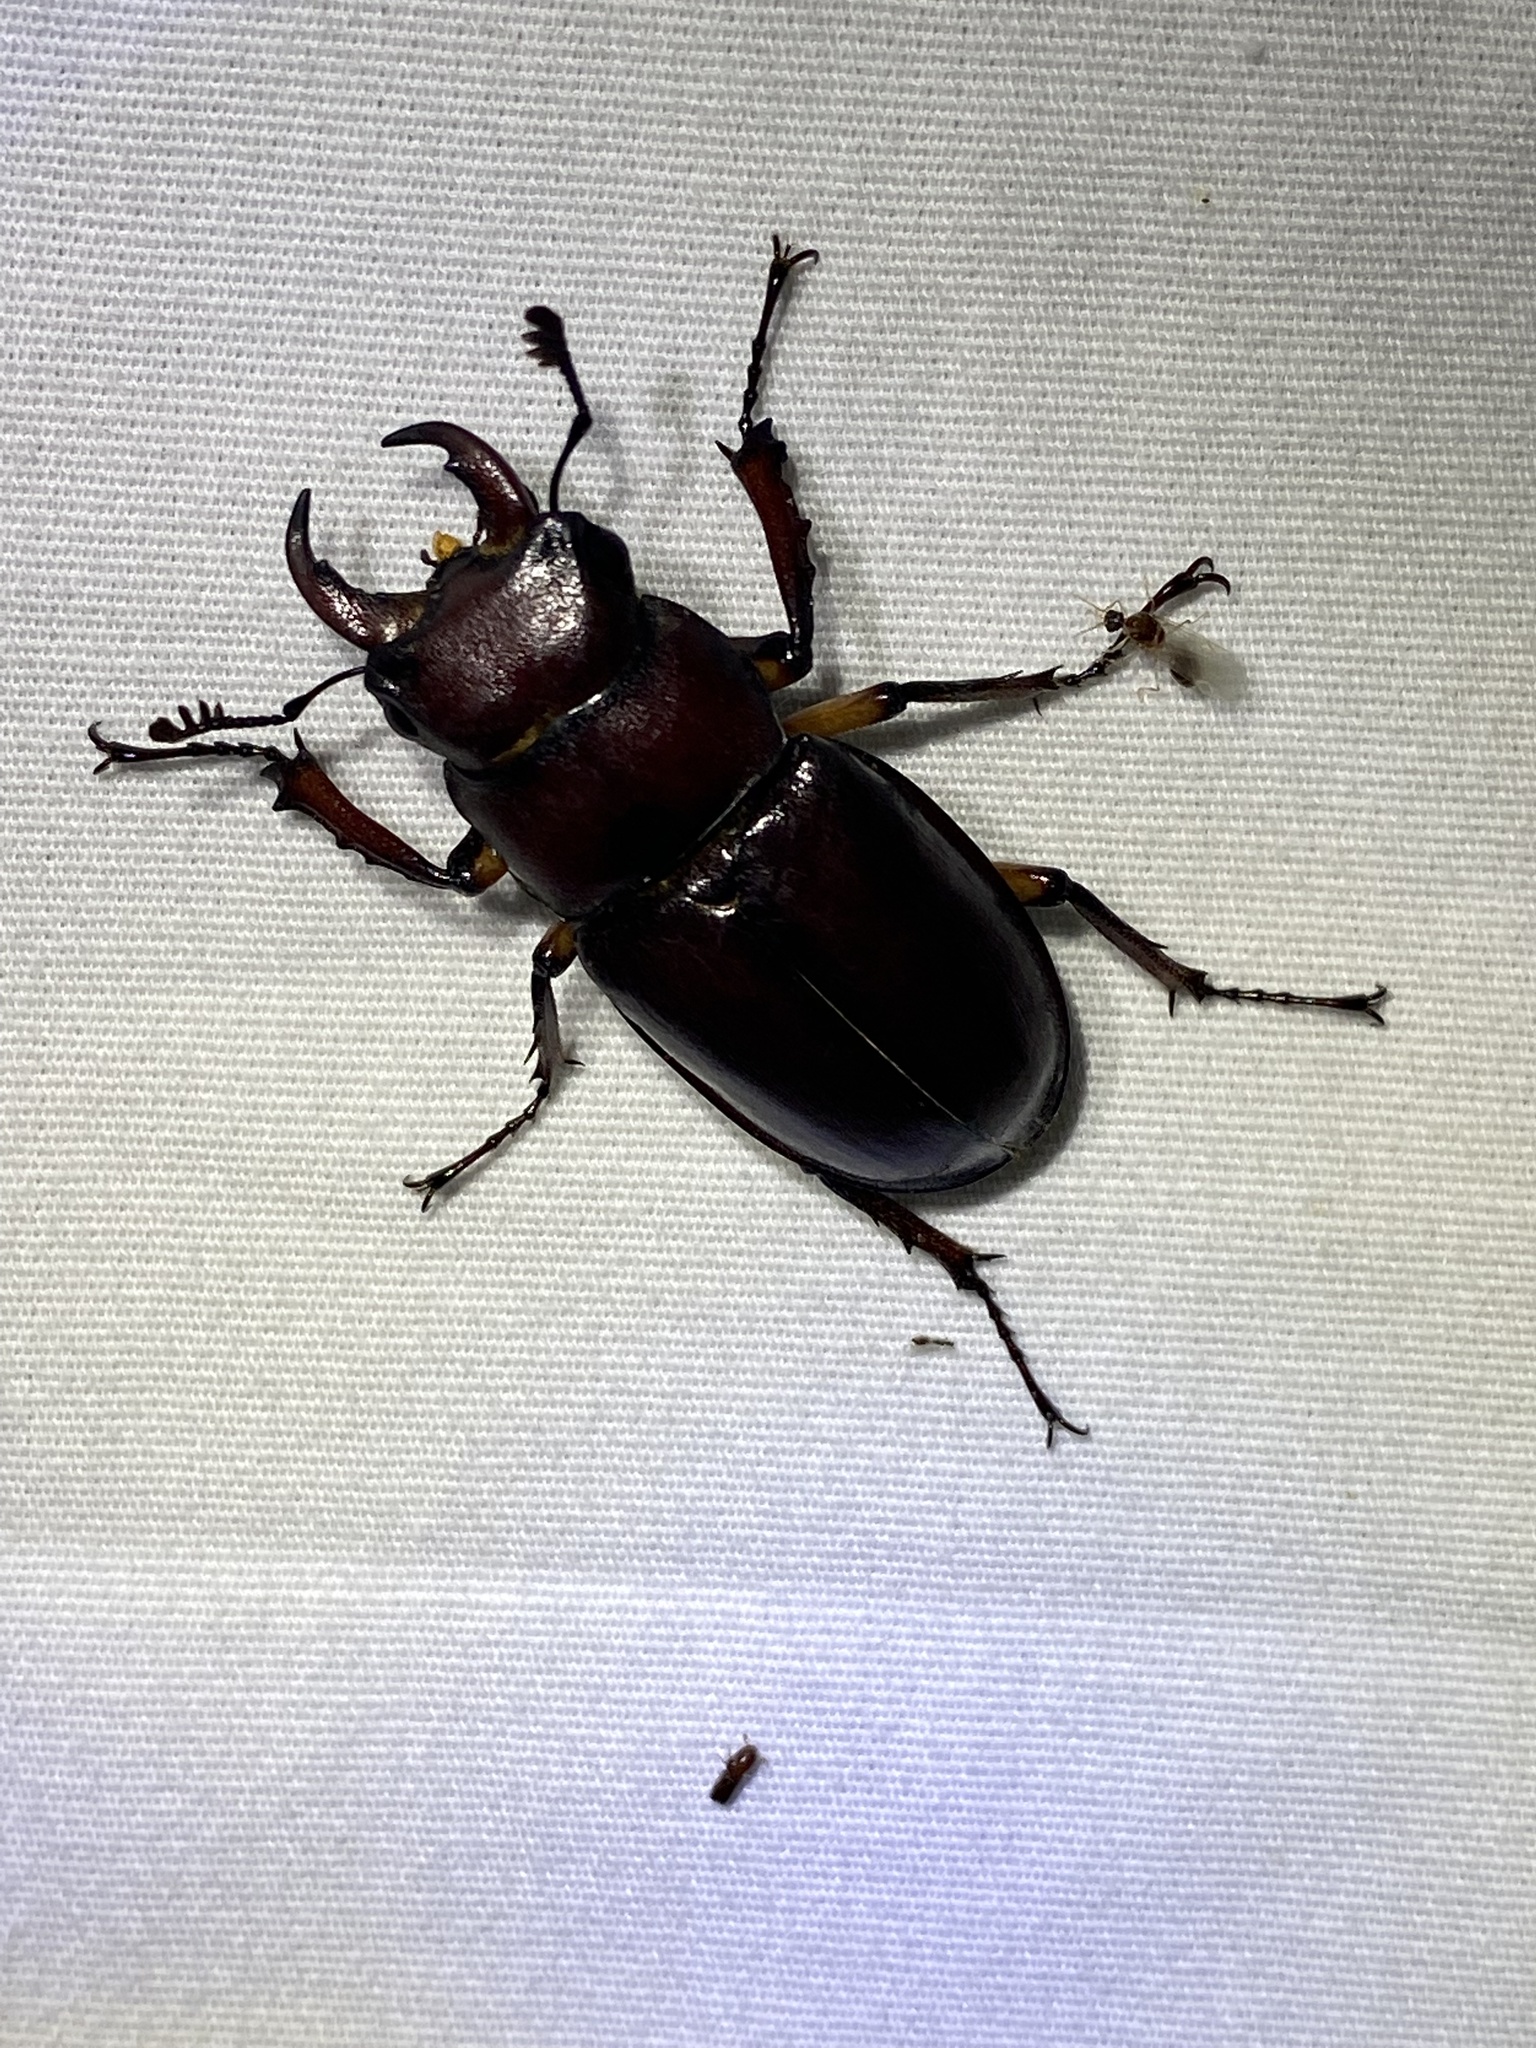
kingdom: Animalia
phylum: Arthropoda
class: Insecta
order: Coleoptera
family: Lucanidae
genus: Lucanus
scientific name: Lucanus capreolus
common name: Stag beetle
